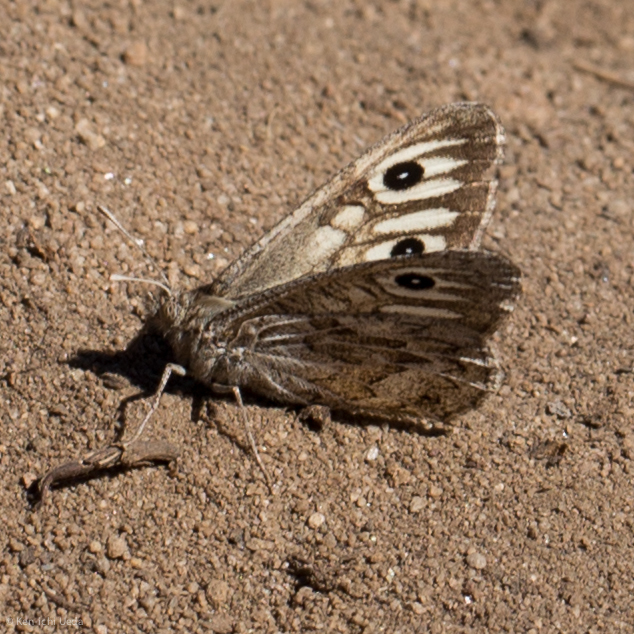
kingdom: Animalia
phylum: Arthropoda
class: Insecta
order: Lepidoptera
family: Nymphalidae
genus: Neominois
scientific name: Neominois ridingsii
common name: Ridings' satyr
